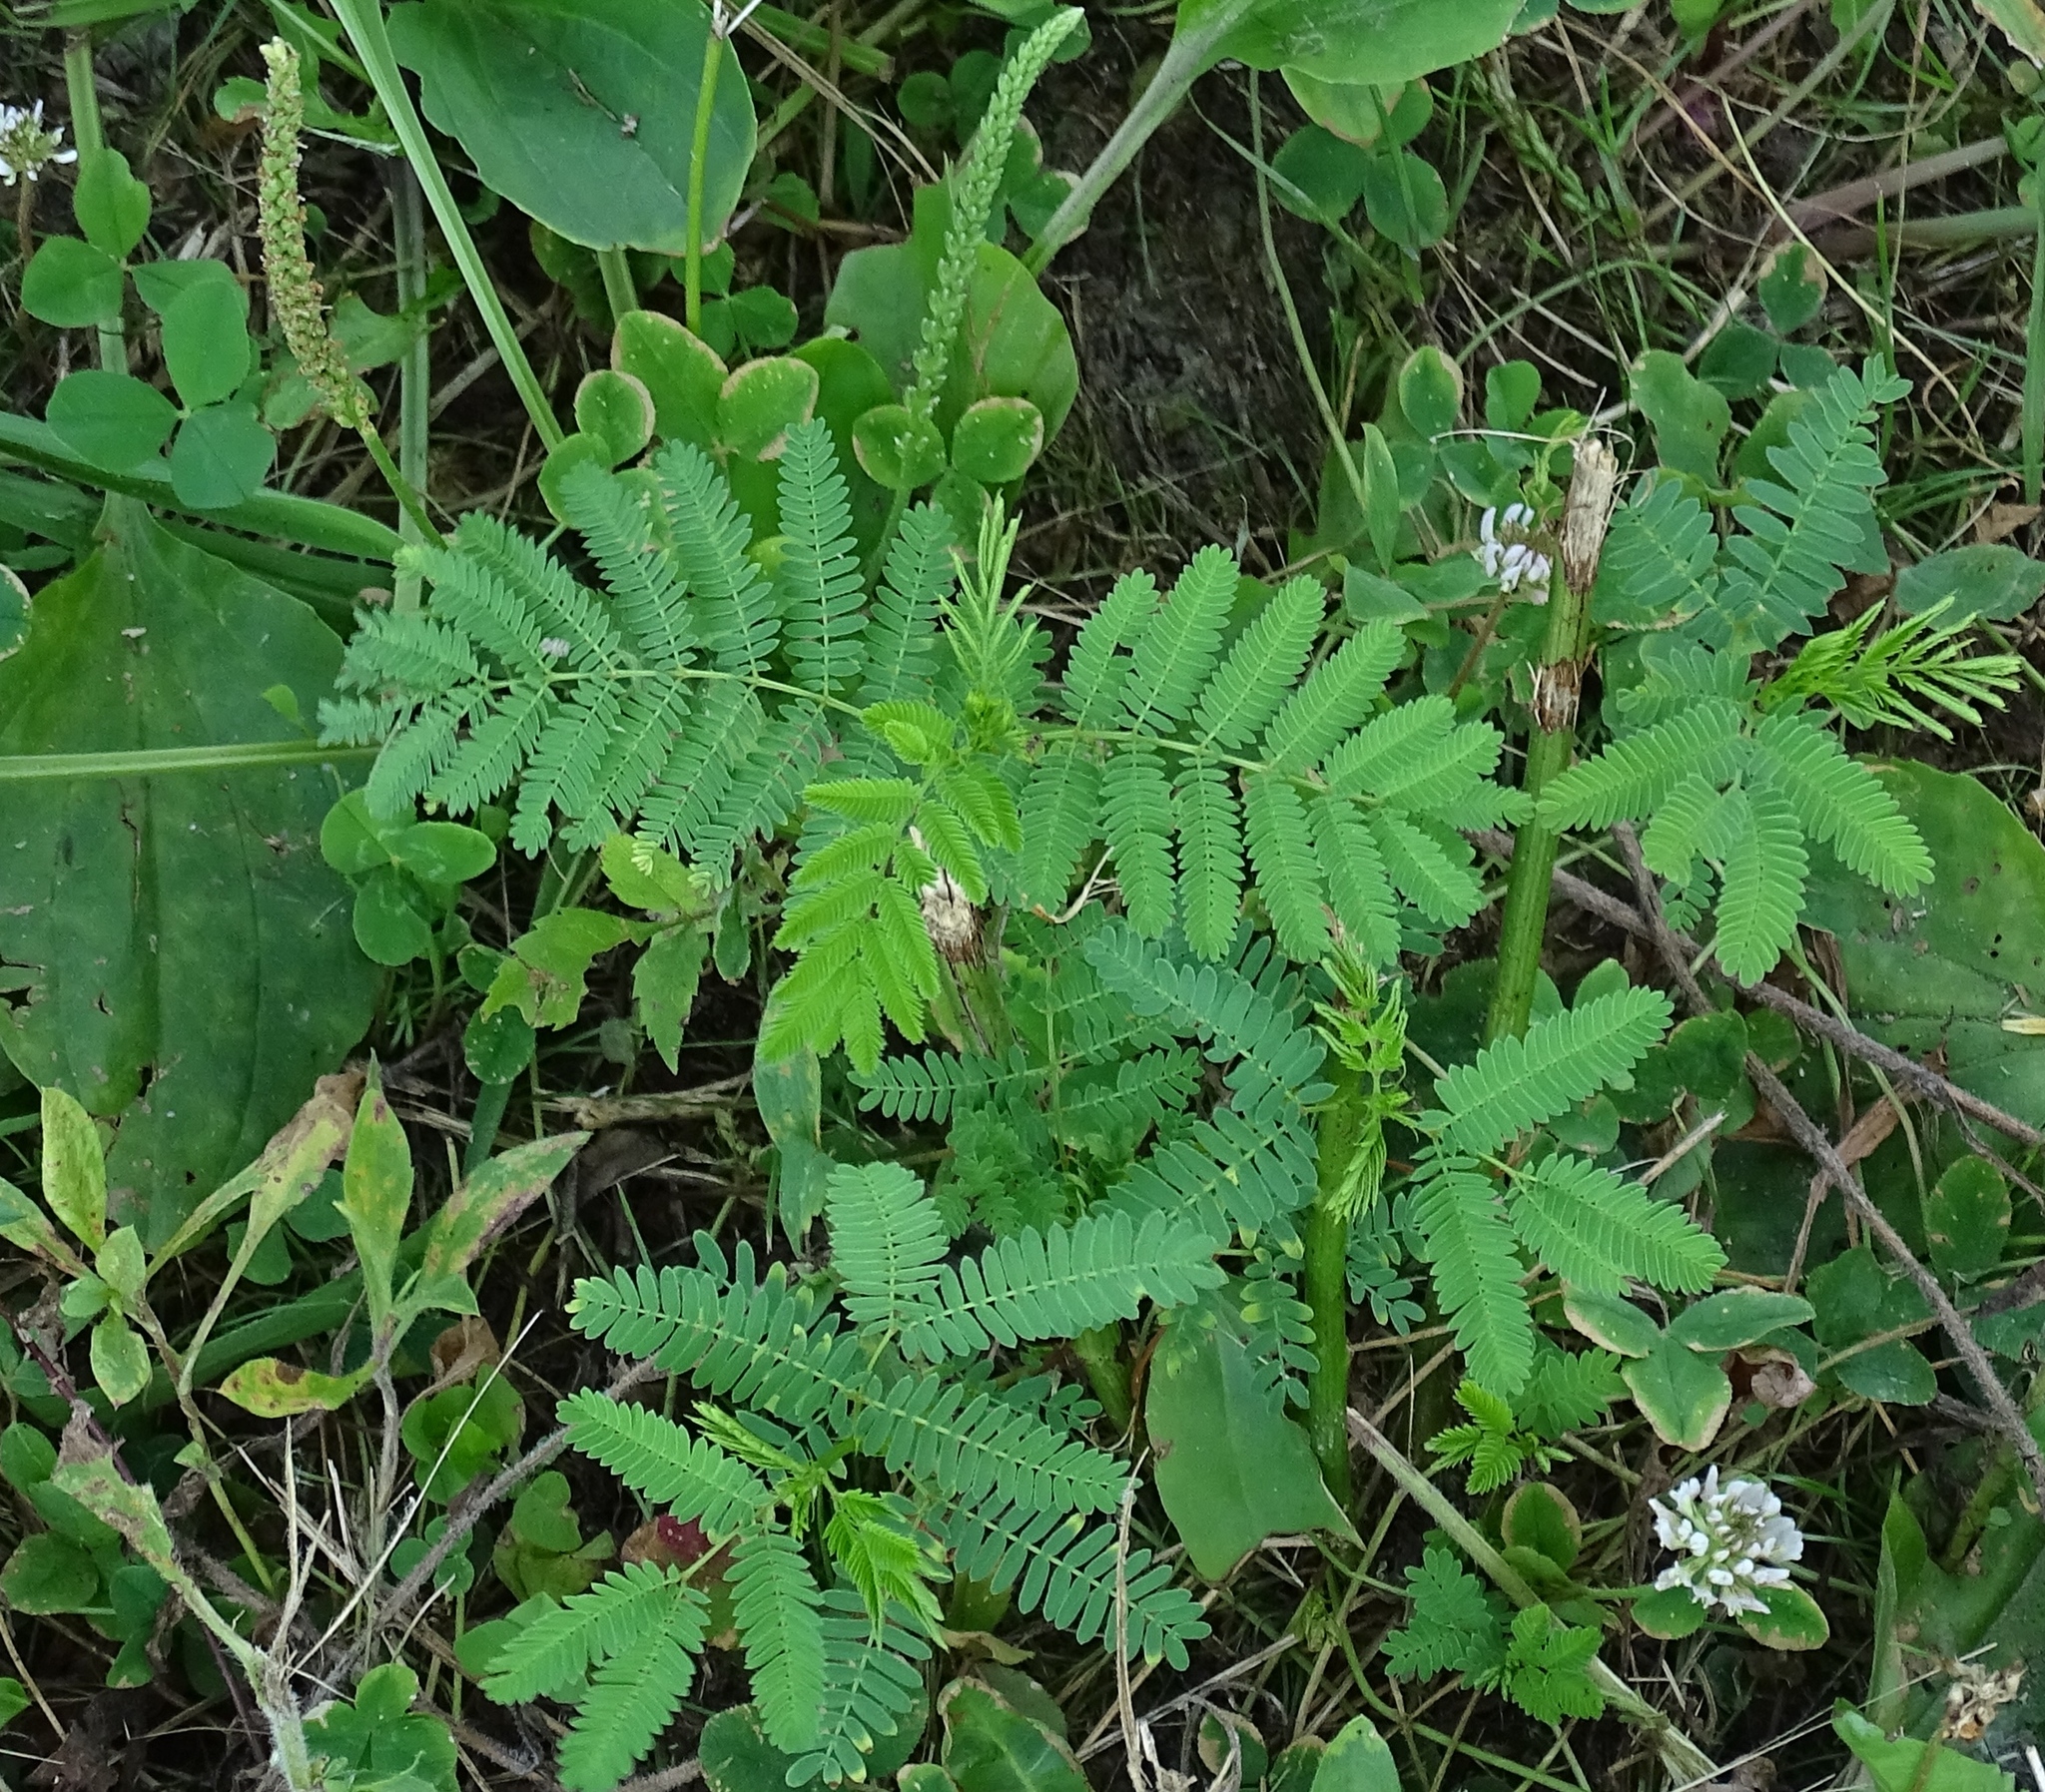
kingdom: Plantae
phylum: Tracheophyta
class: Magnoliopsida
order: Fabales
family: Fabaceae
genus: Desmanthus
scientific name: Desmanthus illinoensis
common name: Illinois bundle-flower
